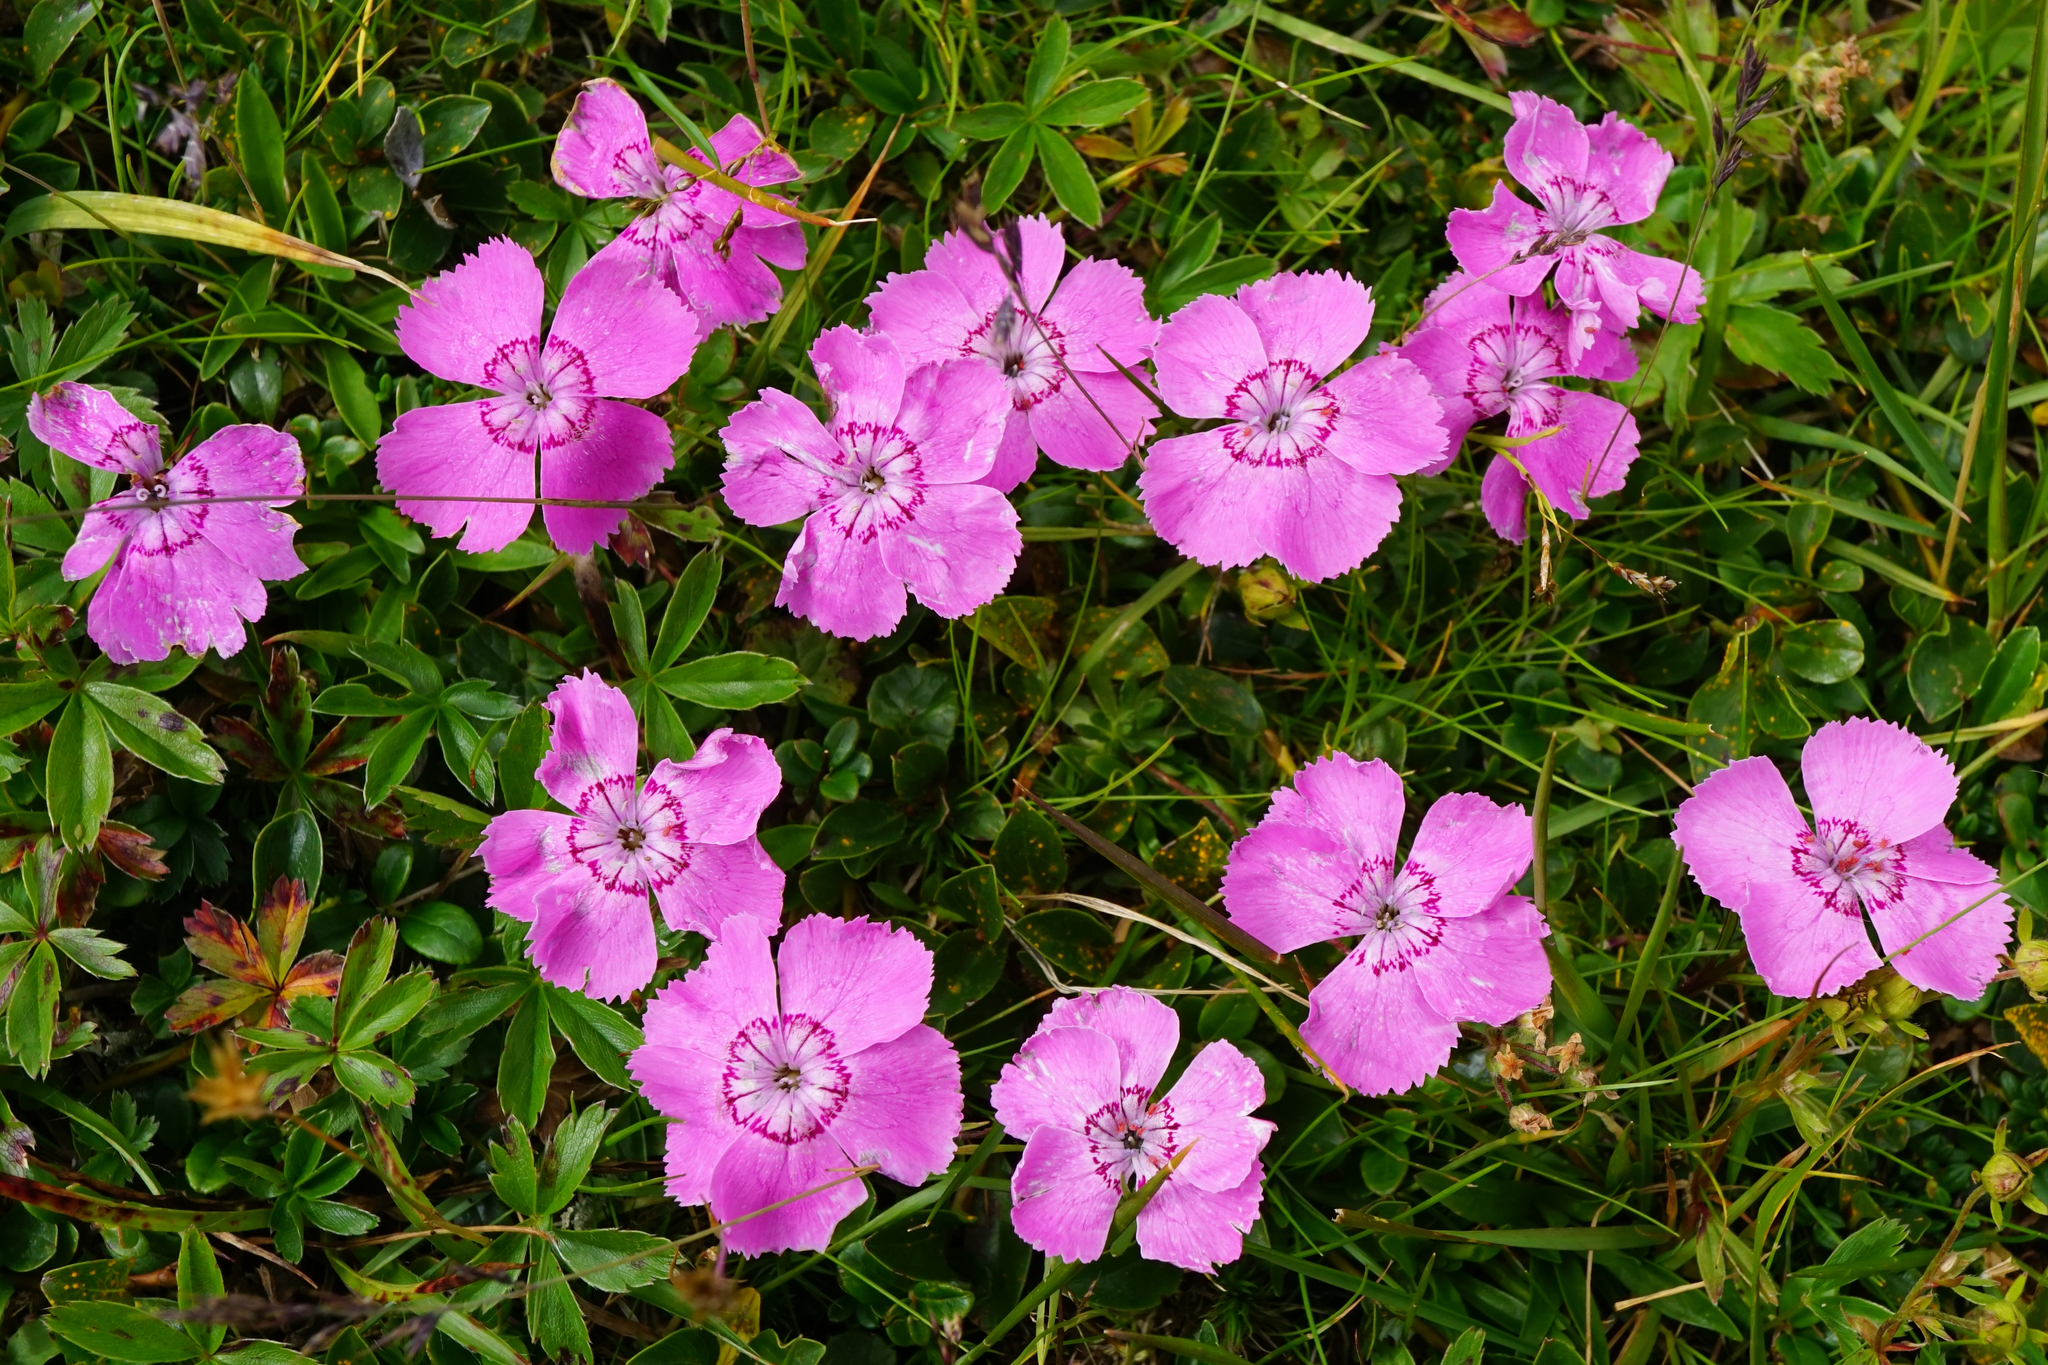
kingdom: Plantae
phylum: Tracheophyta
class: Magnoliopsida
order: Caryophyllales
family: Caryophyllaceae
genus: Dianthus
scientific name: Dianthus alpinus
